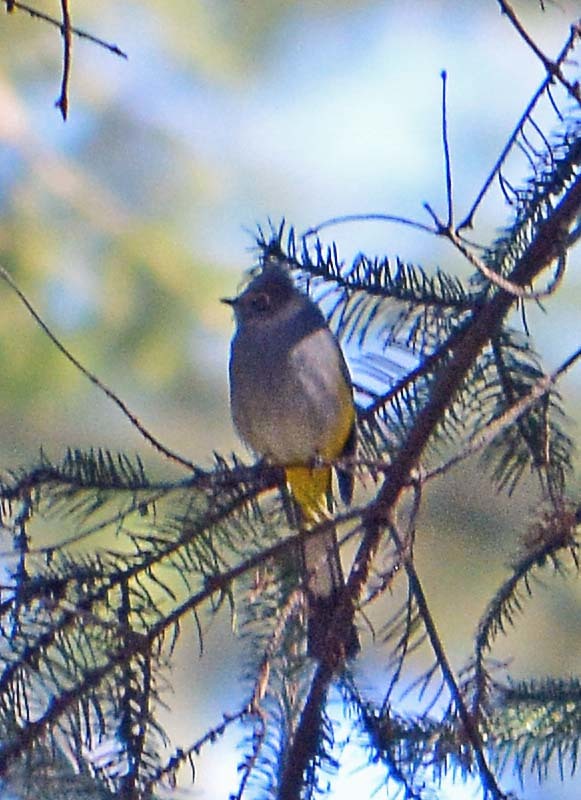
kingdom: Animalia
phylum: Chordata
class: Aves
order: Passeriformes
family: Ptilogonatidae
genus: Ptilogonys
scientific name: Ptilogonys cinereus
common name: Gray silky-flycatcher
